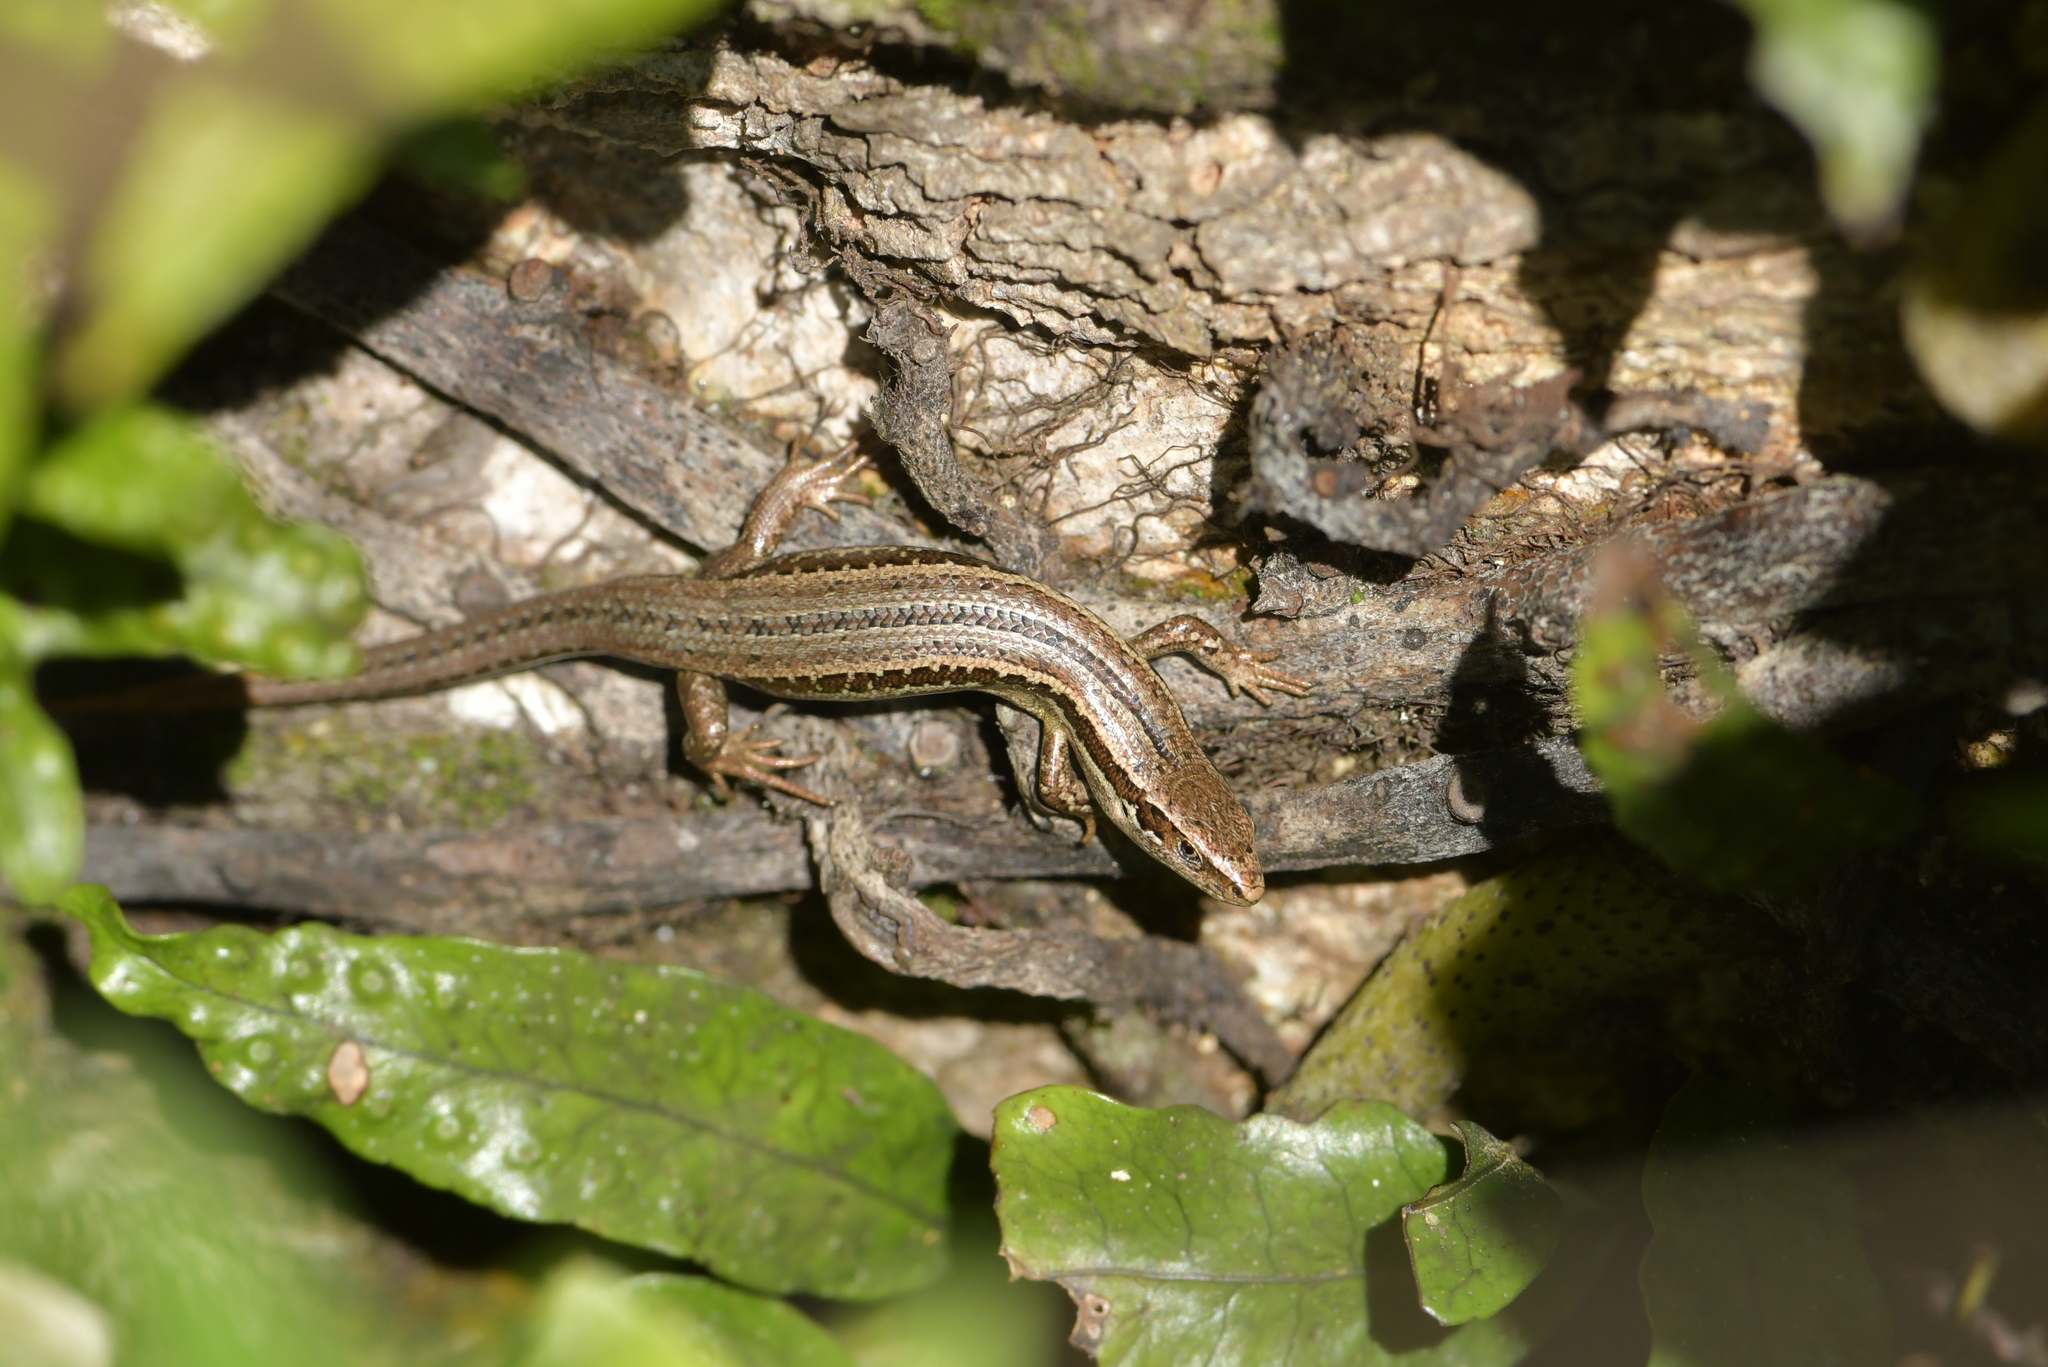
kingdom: Animalia
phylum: Chordata
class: Squamata
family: Scincidae
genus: Oligosoma
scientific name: Oligosoma polychroma
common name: Common new zealand skink
